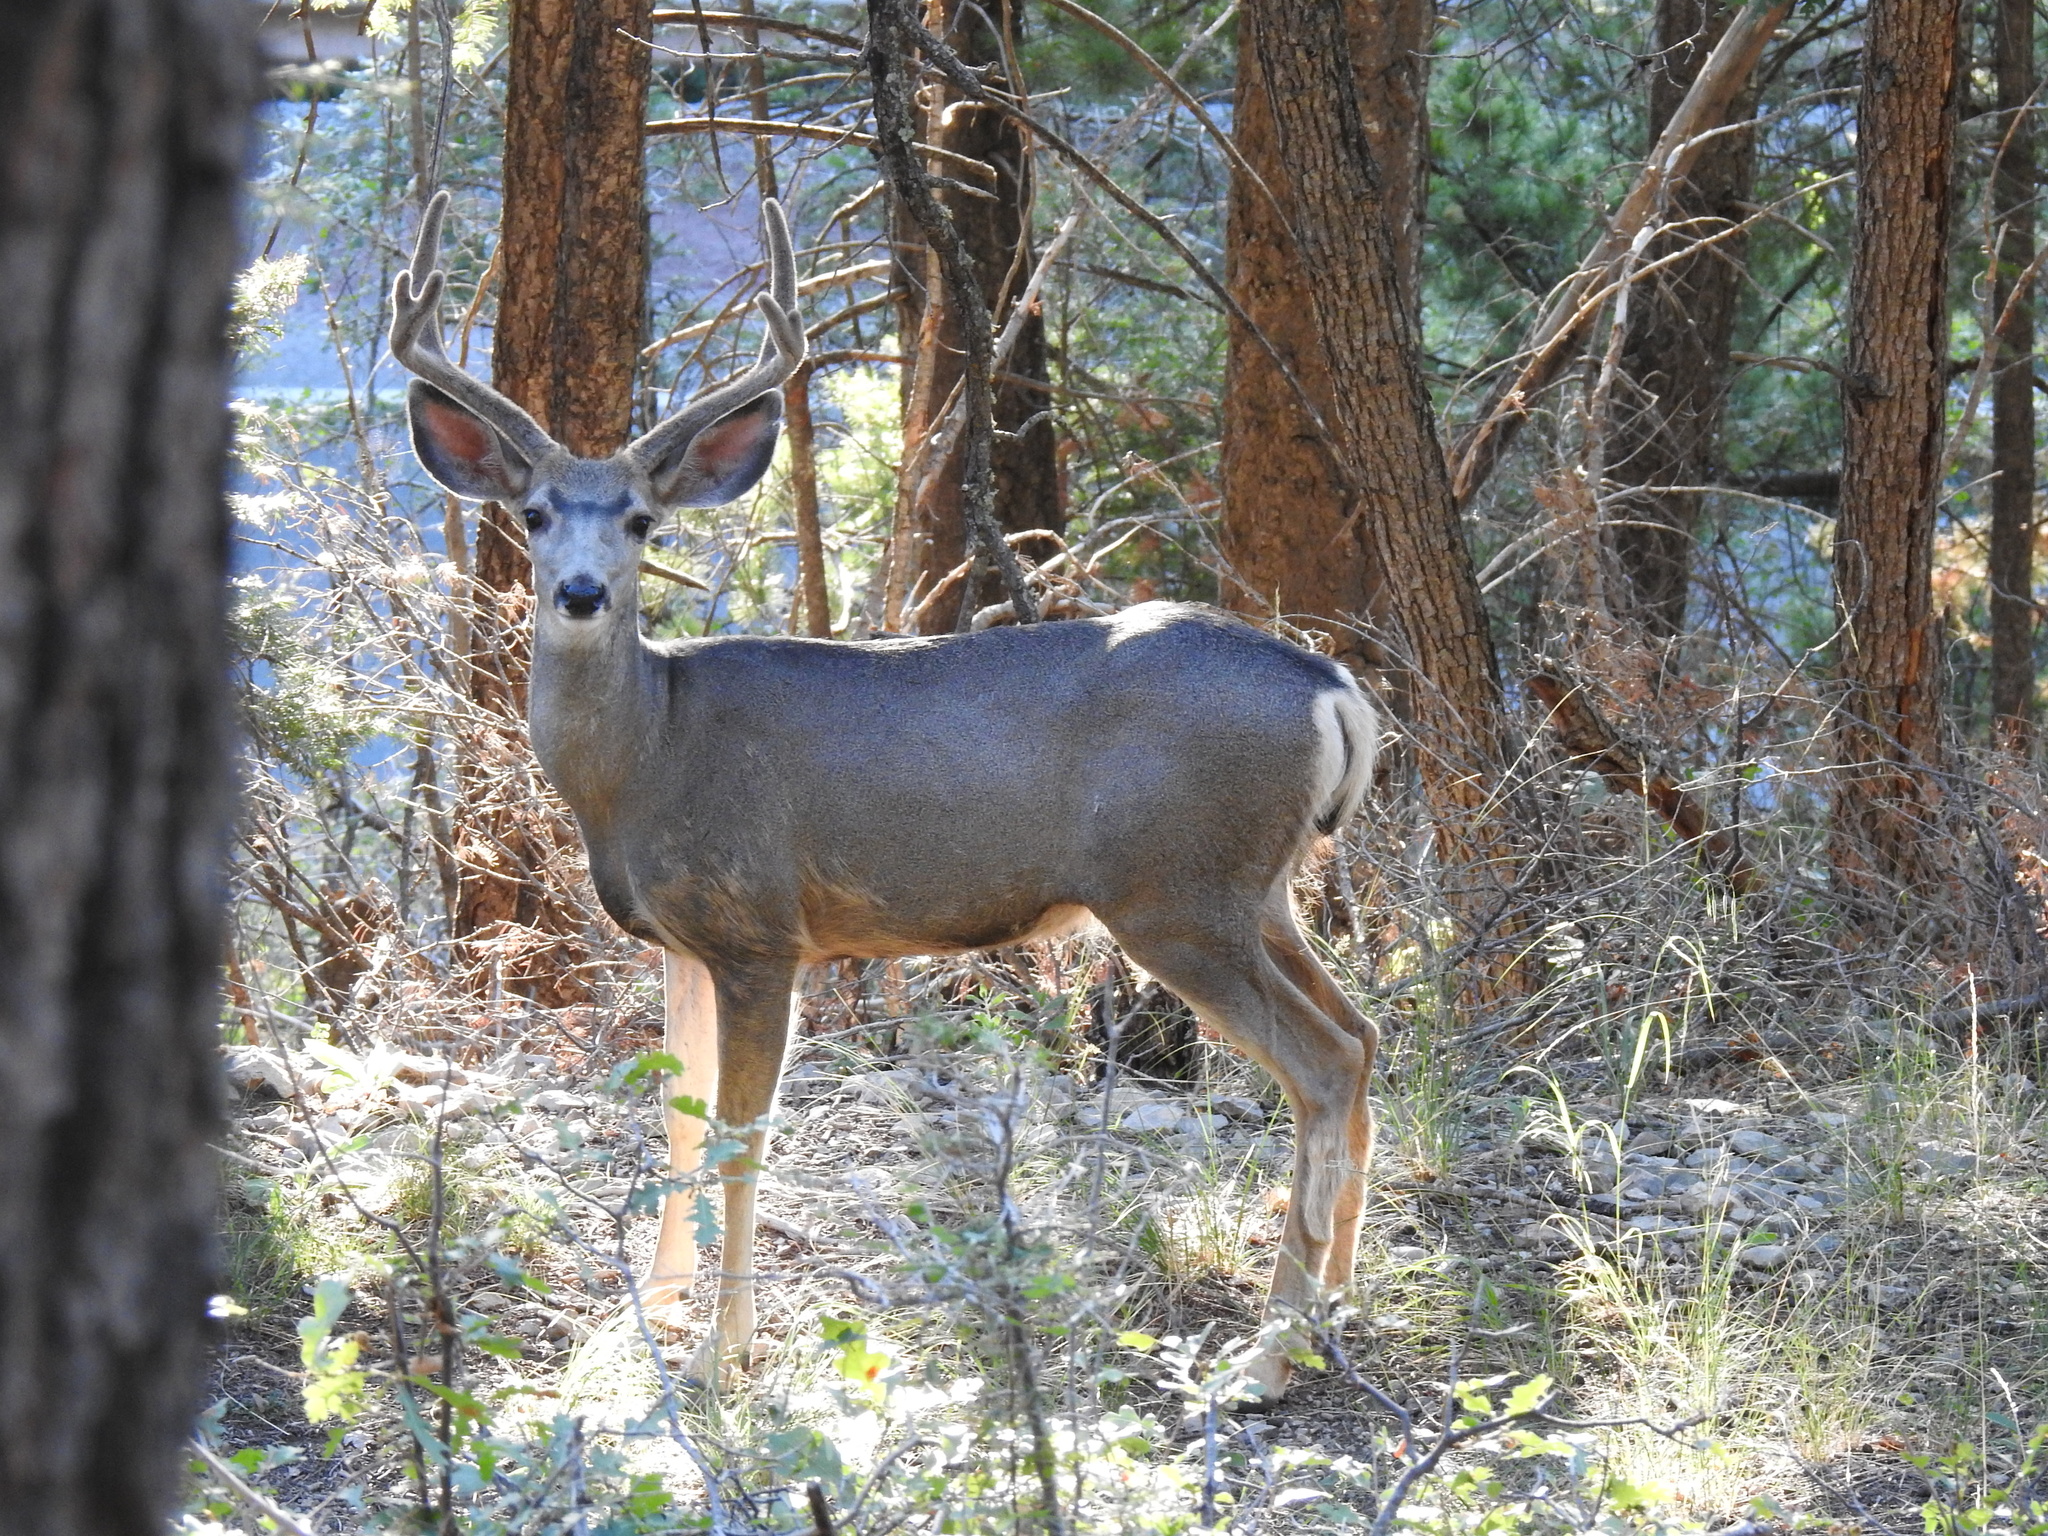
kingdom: Animalia
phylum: Chordata
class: Mammalia
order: Artiodactyla
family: Cervidae
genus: Odocoileus
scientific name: Odocoileus hemionus
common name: Mule deer
